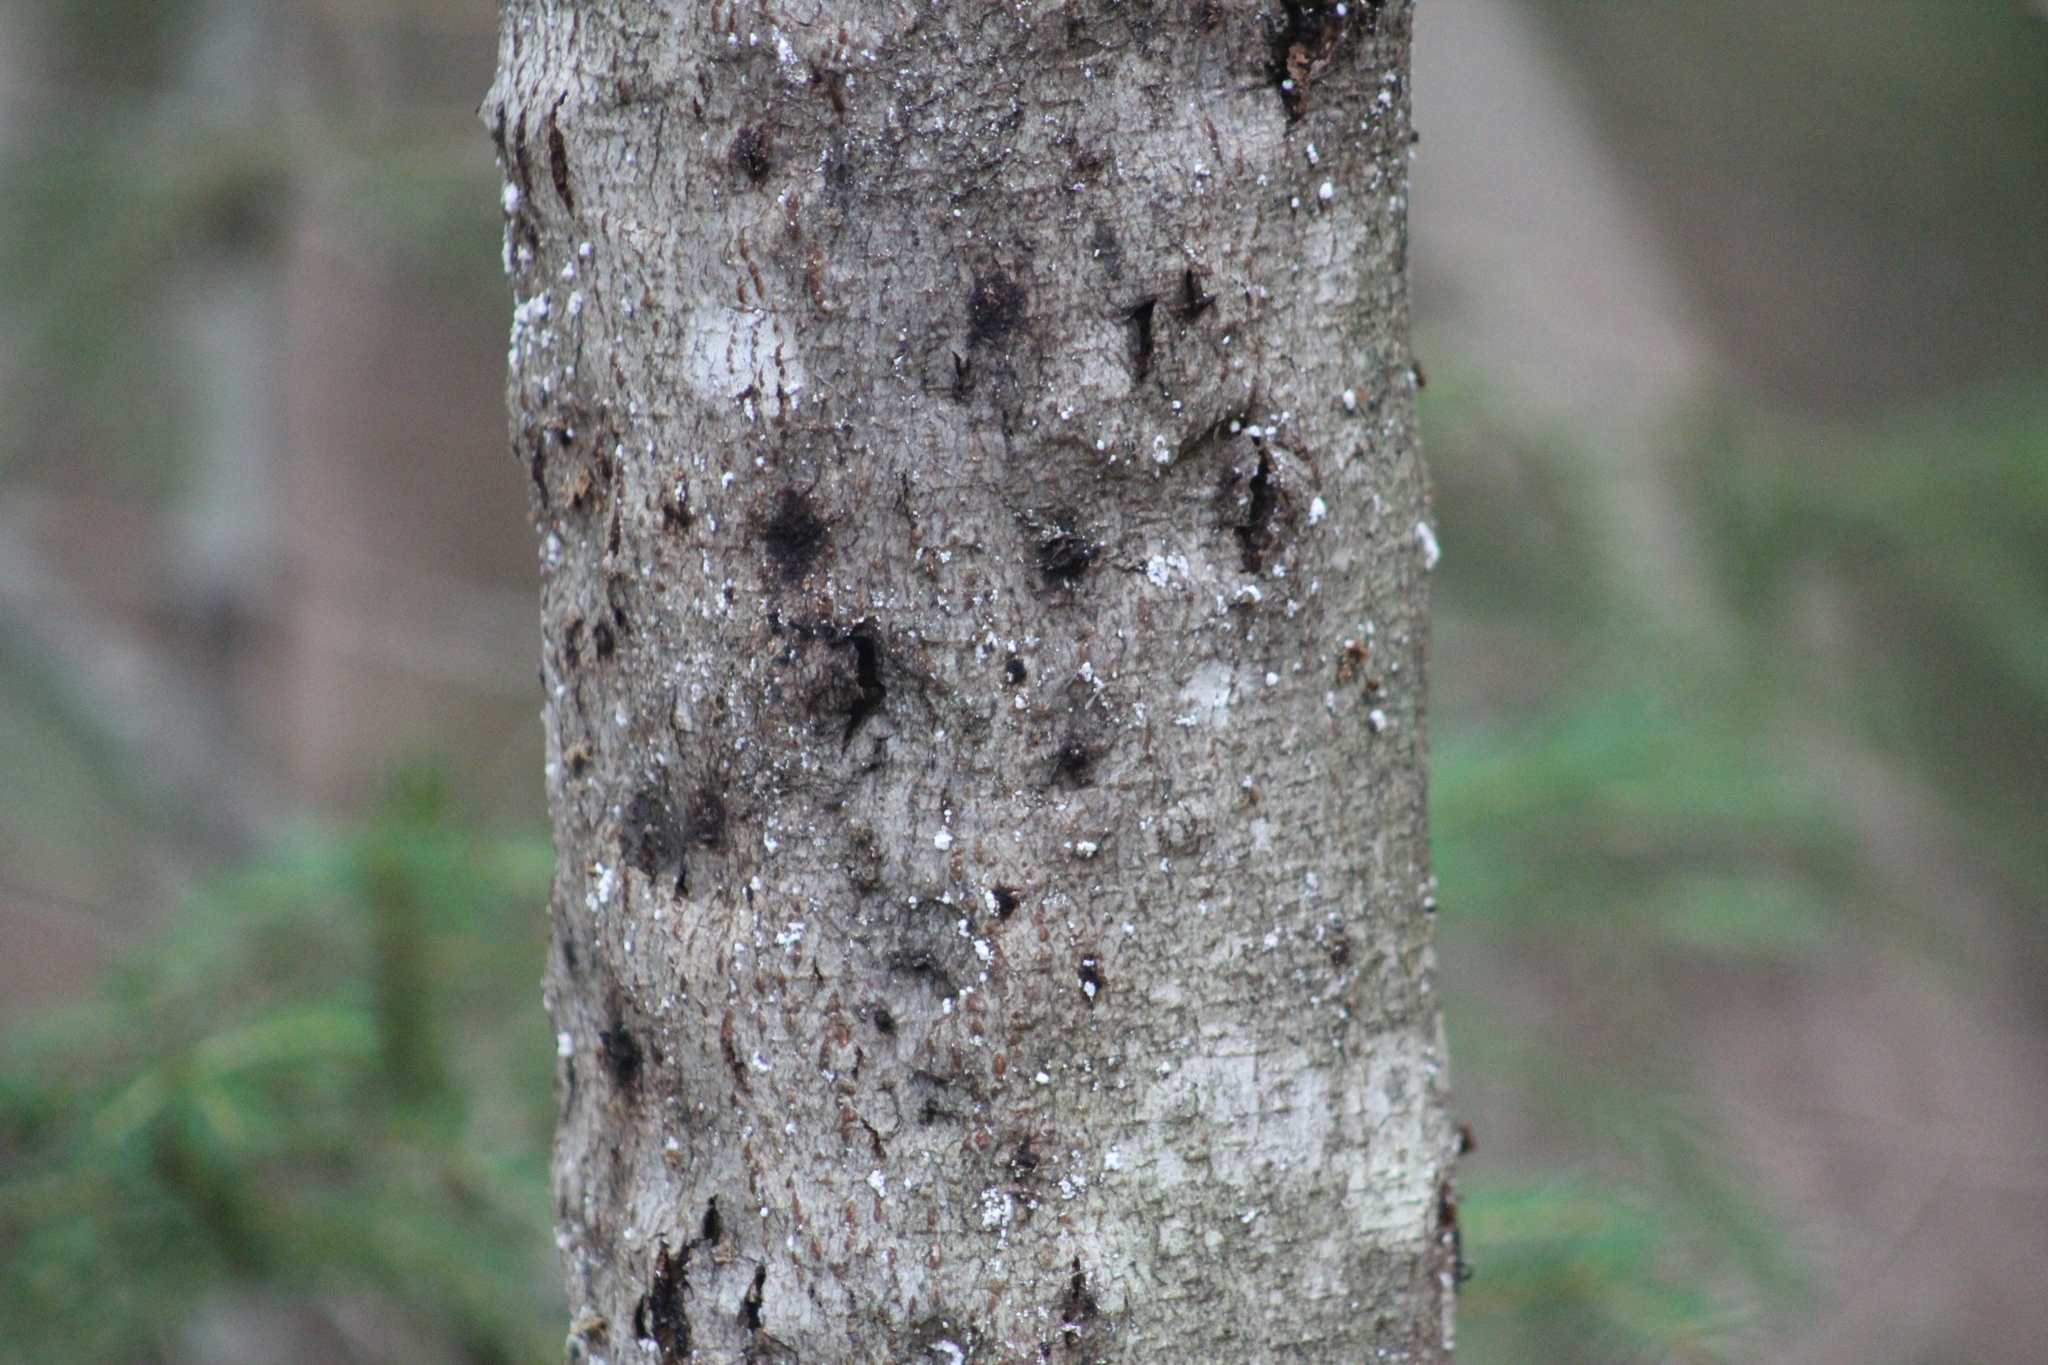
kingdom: Animalia
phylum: Arthropoda
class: Insecta
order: Hemiptera
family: Eriococcidae
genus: Cryptococcus
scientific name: Cryptococcus fagisuga
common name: Beech scale
